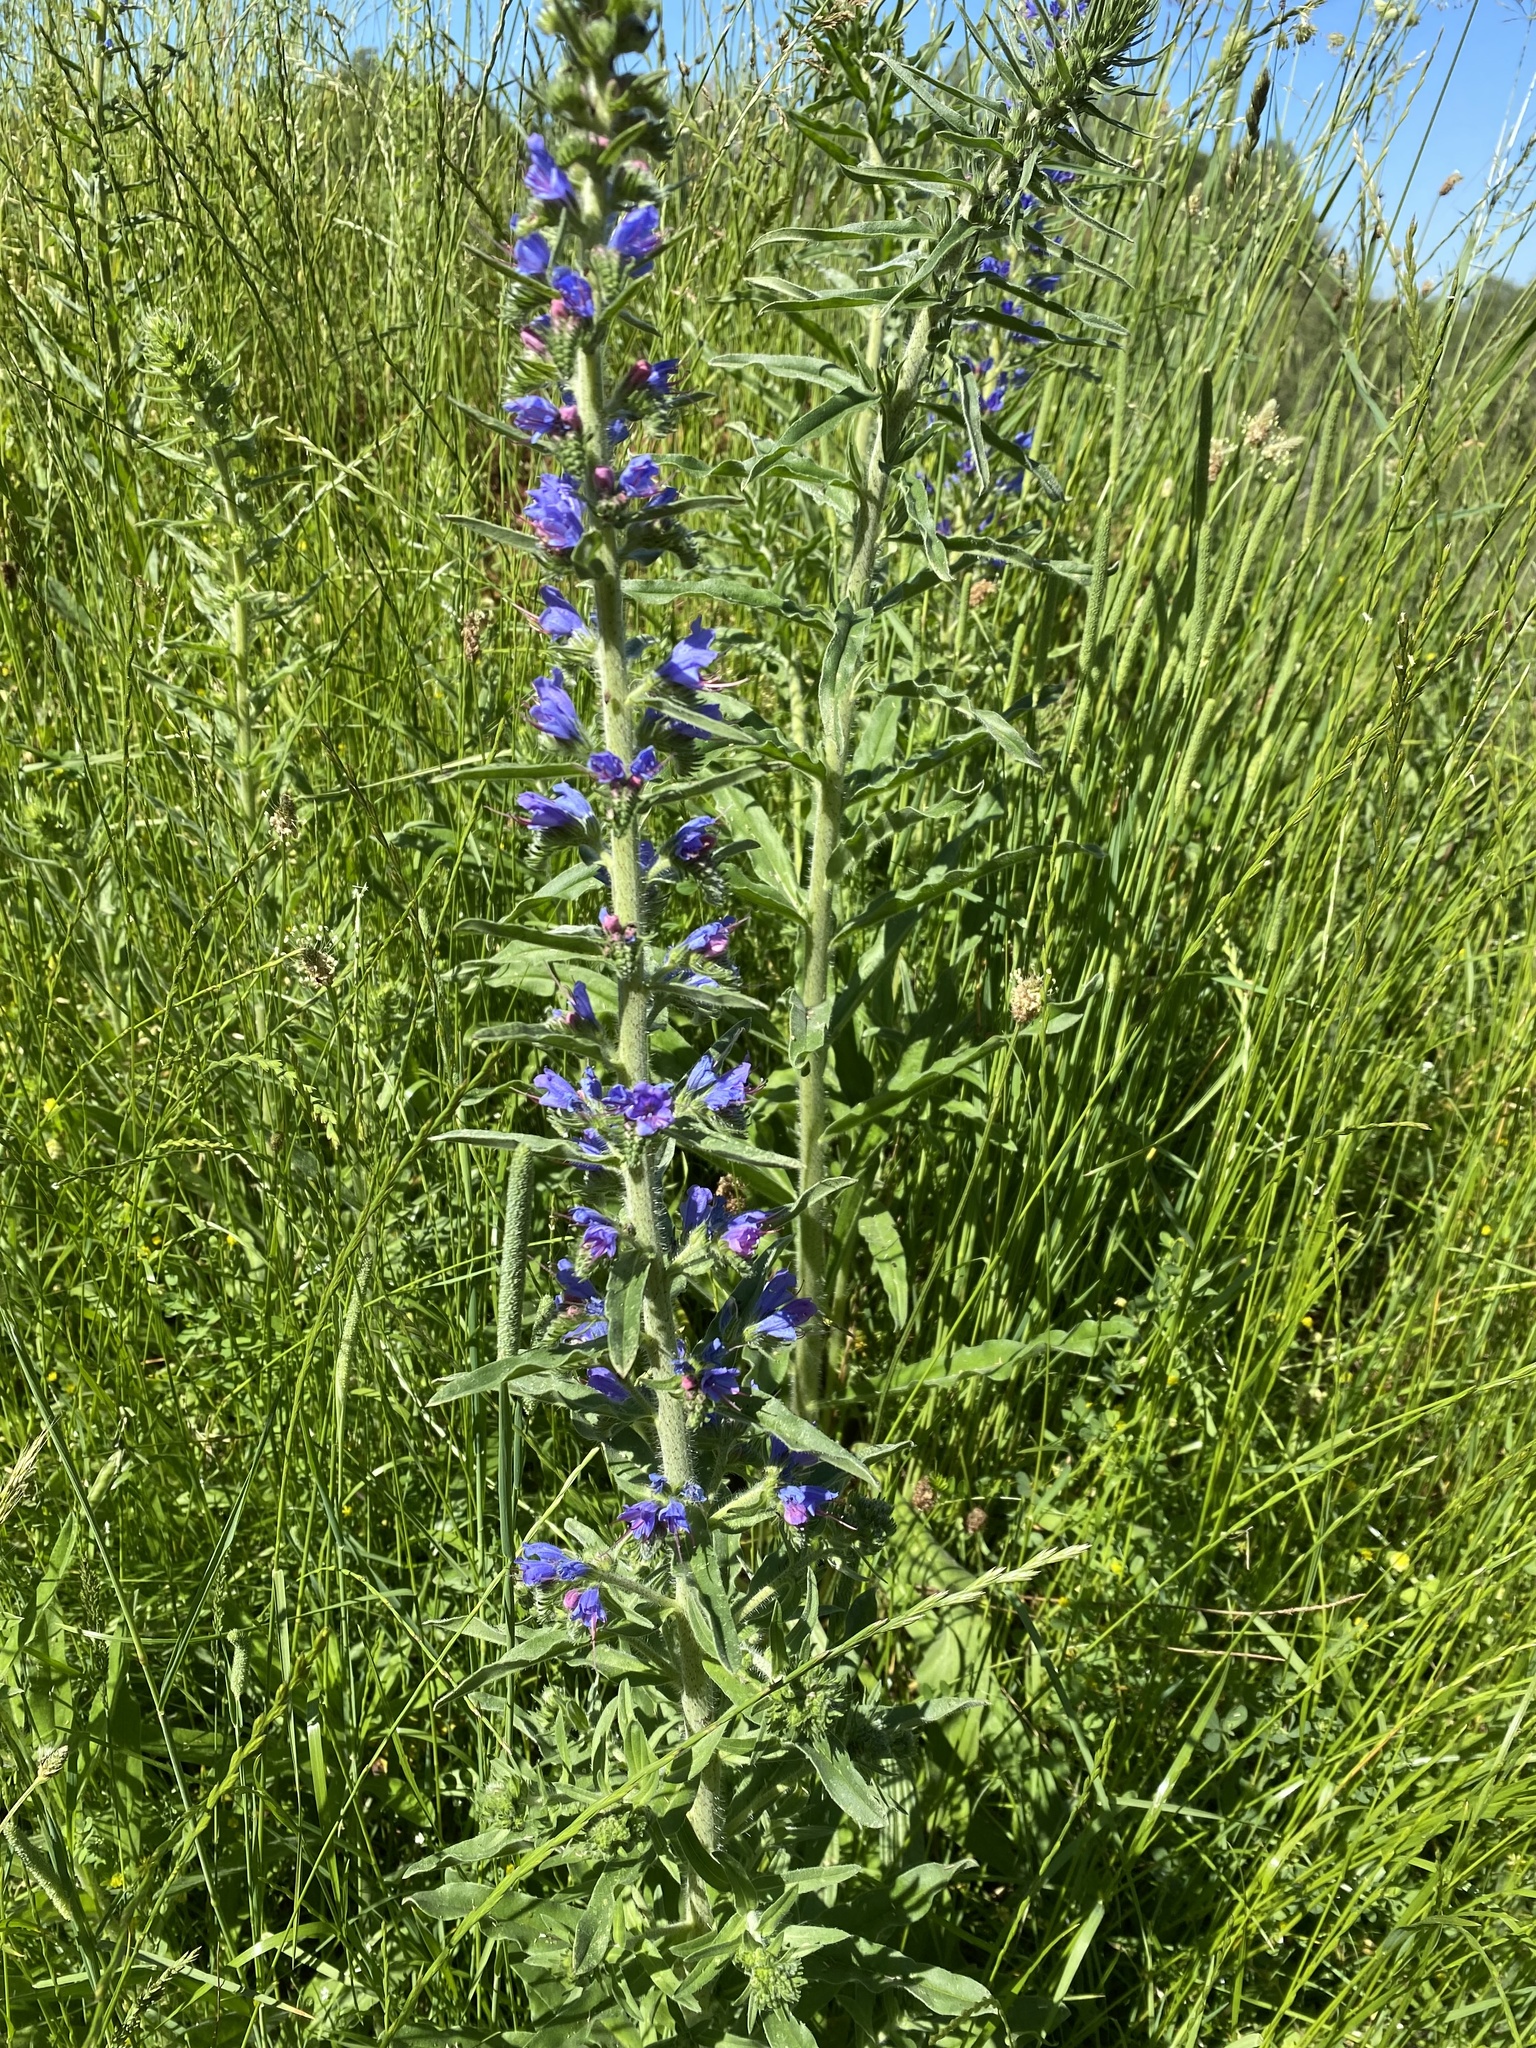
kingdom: Plantae
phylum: Tracheophyta
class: Magnoliopsida
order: Boraginales
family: Boraginaceae
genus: Echium
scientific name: Echium vulgare
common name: Common viper's bugloss
